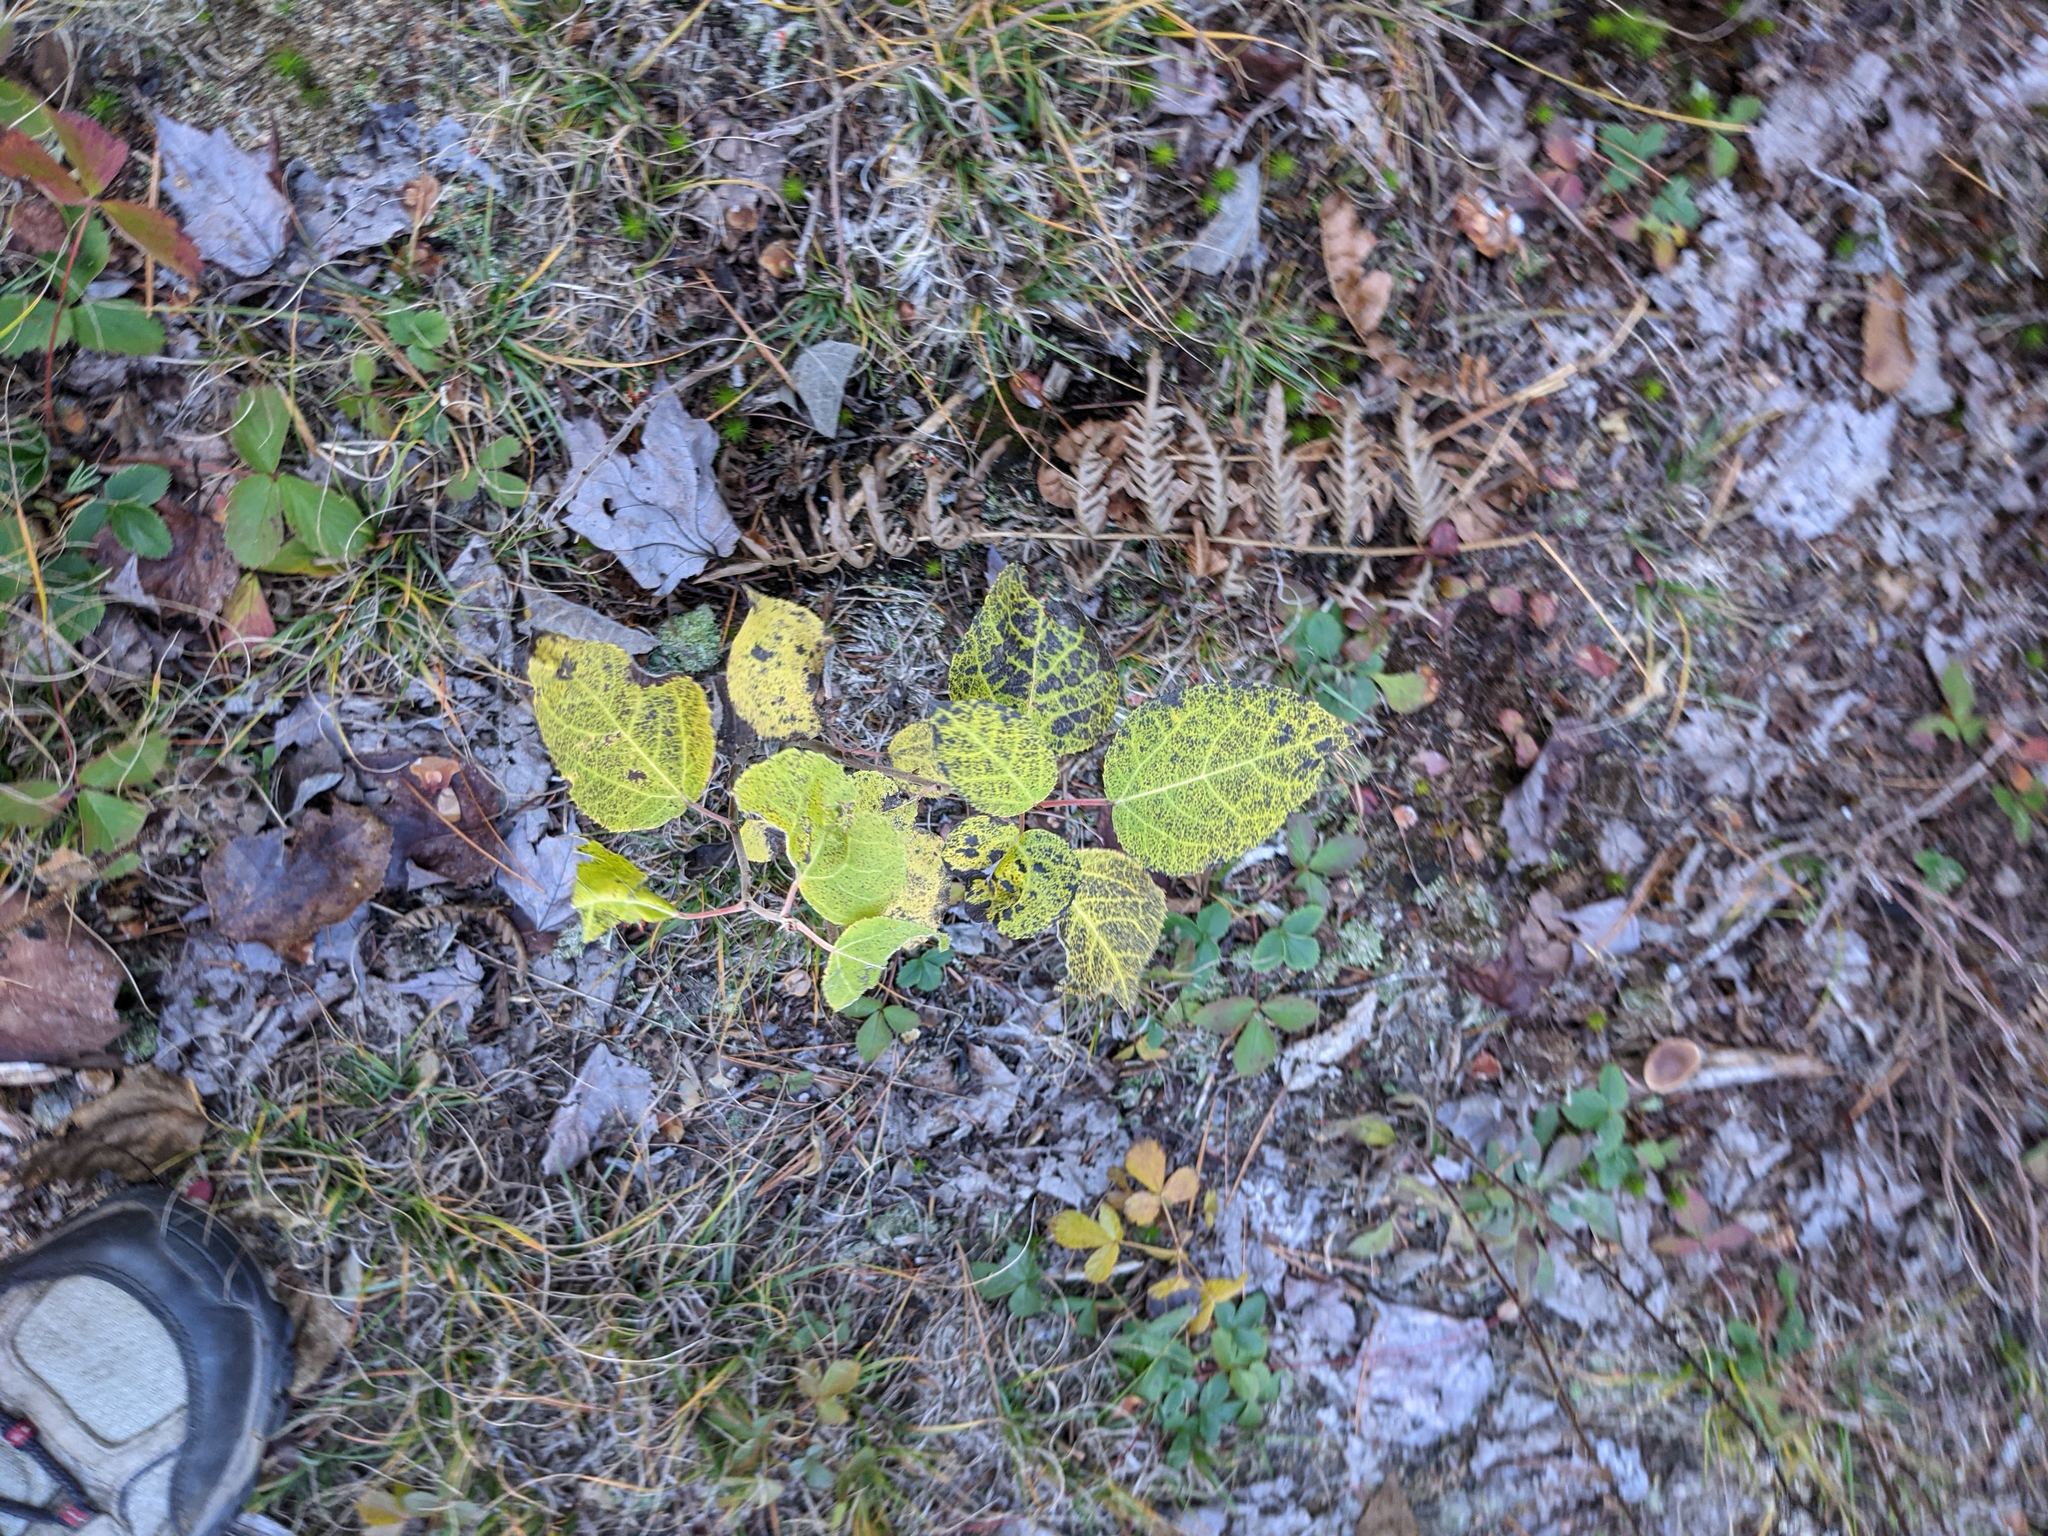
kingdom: Plantae
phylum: Tracheophyta
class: Magnoliopsida
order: Malpighiales
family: Salicaceae
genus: Populus
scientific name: Populus tremuloides
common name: Quaking aspen
